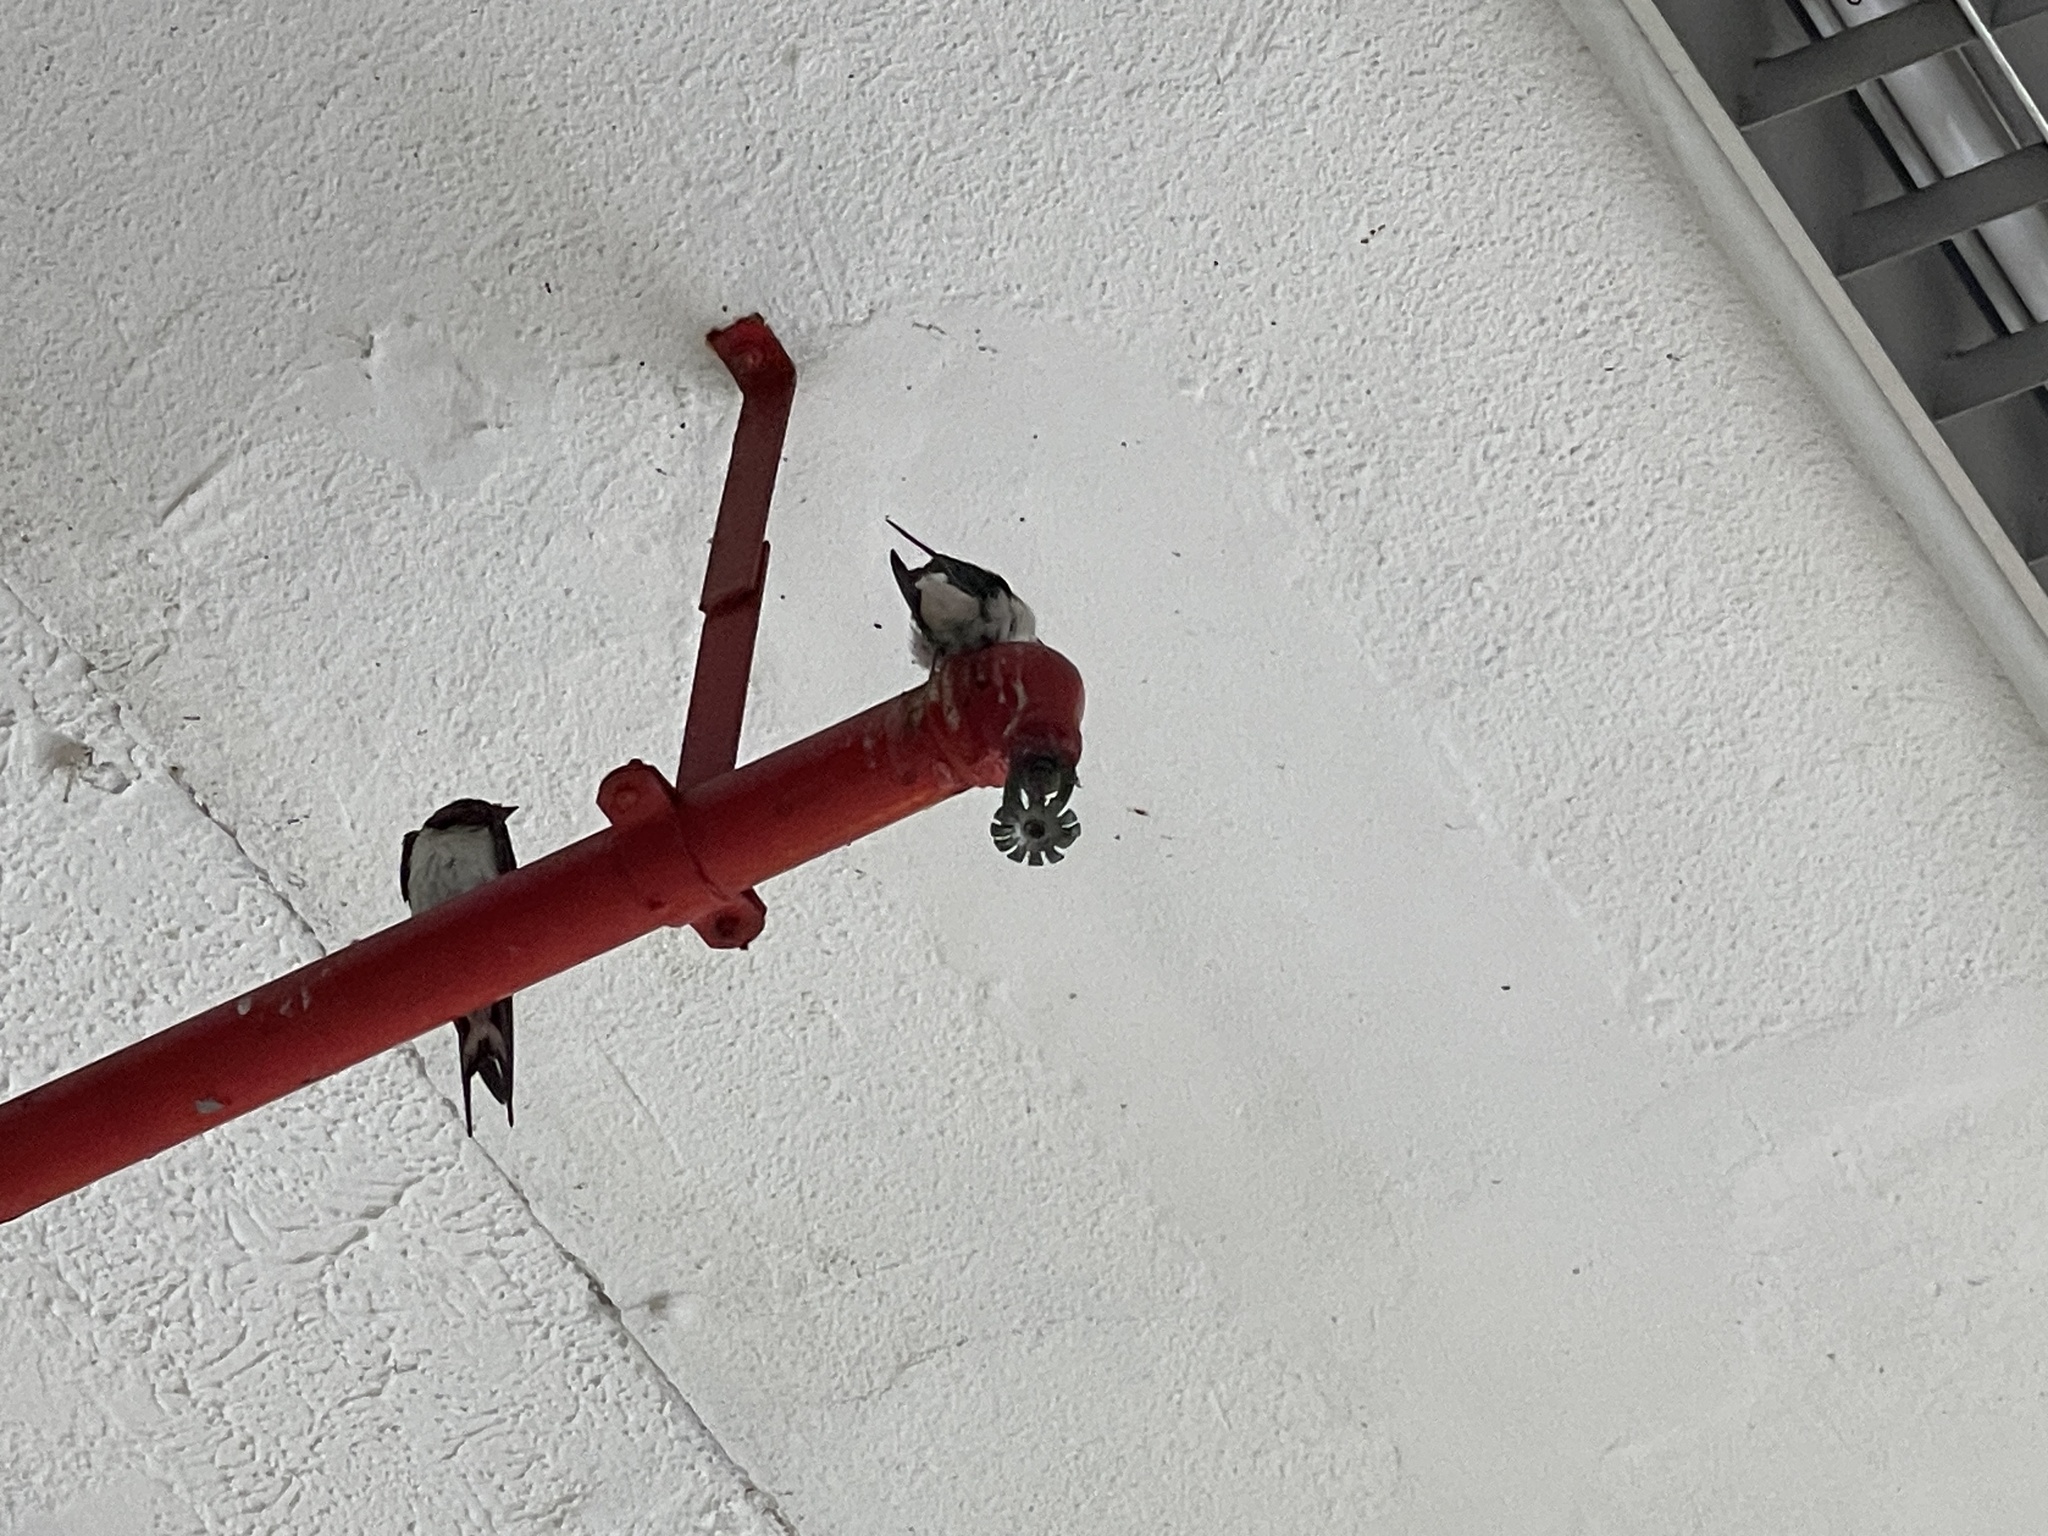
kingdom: Animalia
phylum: Chordata
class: Aves
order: Passeriformes
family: Hirundinidae
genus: Hirundo
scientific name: Hirundo rustica
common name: Barn swallow
